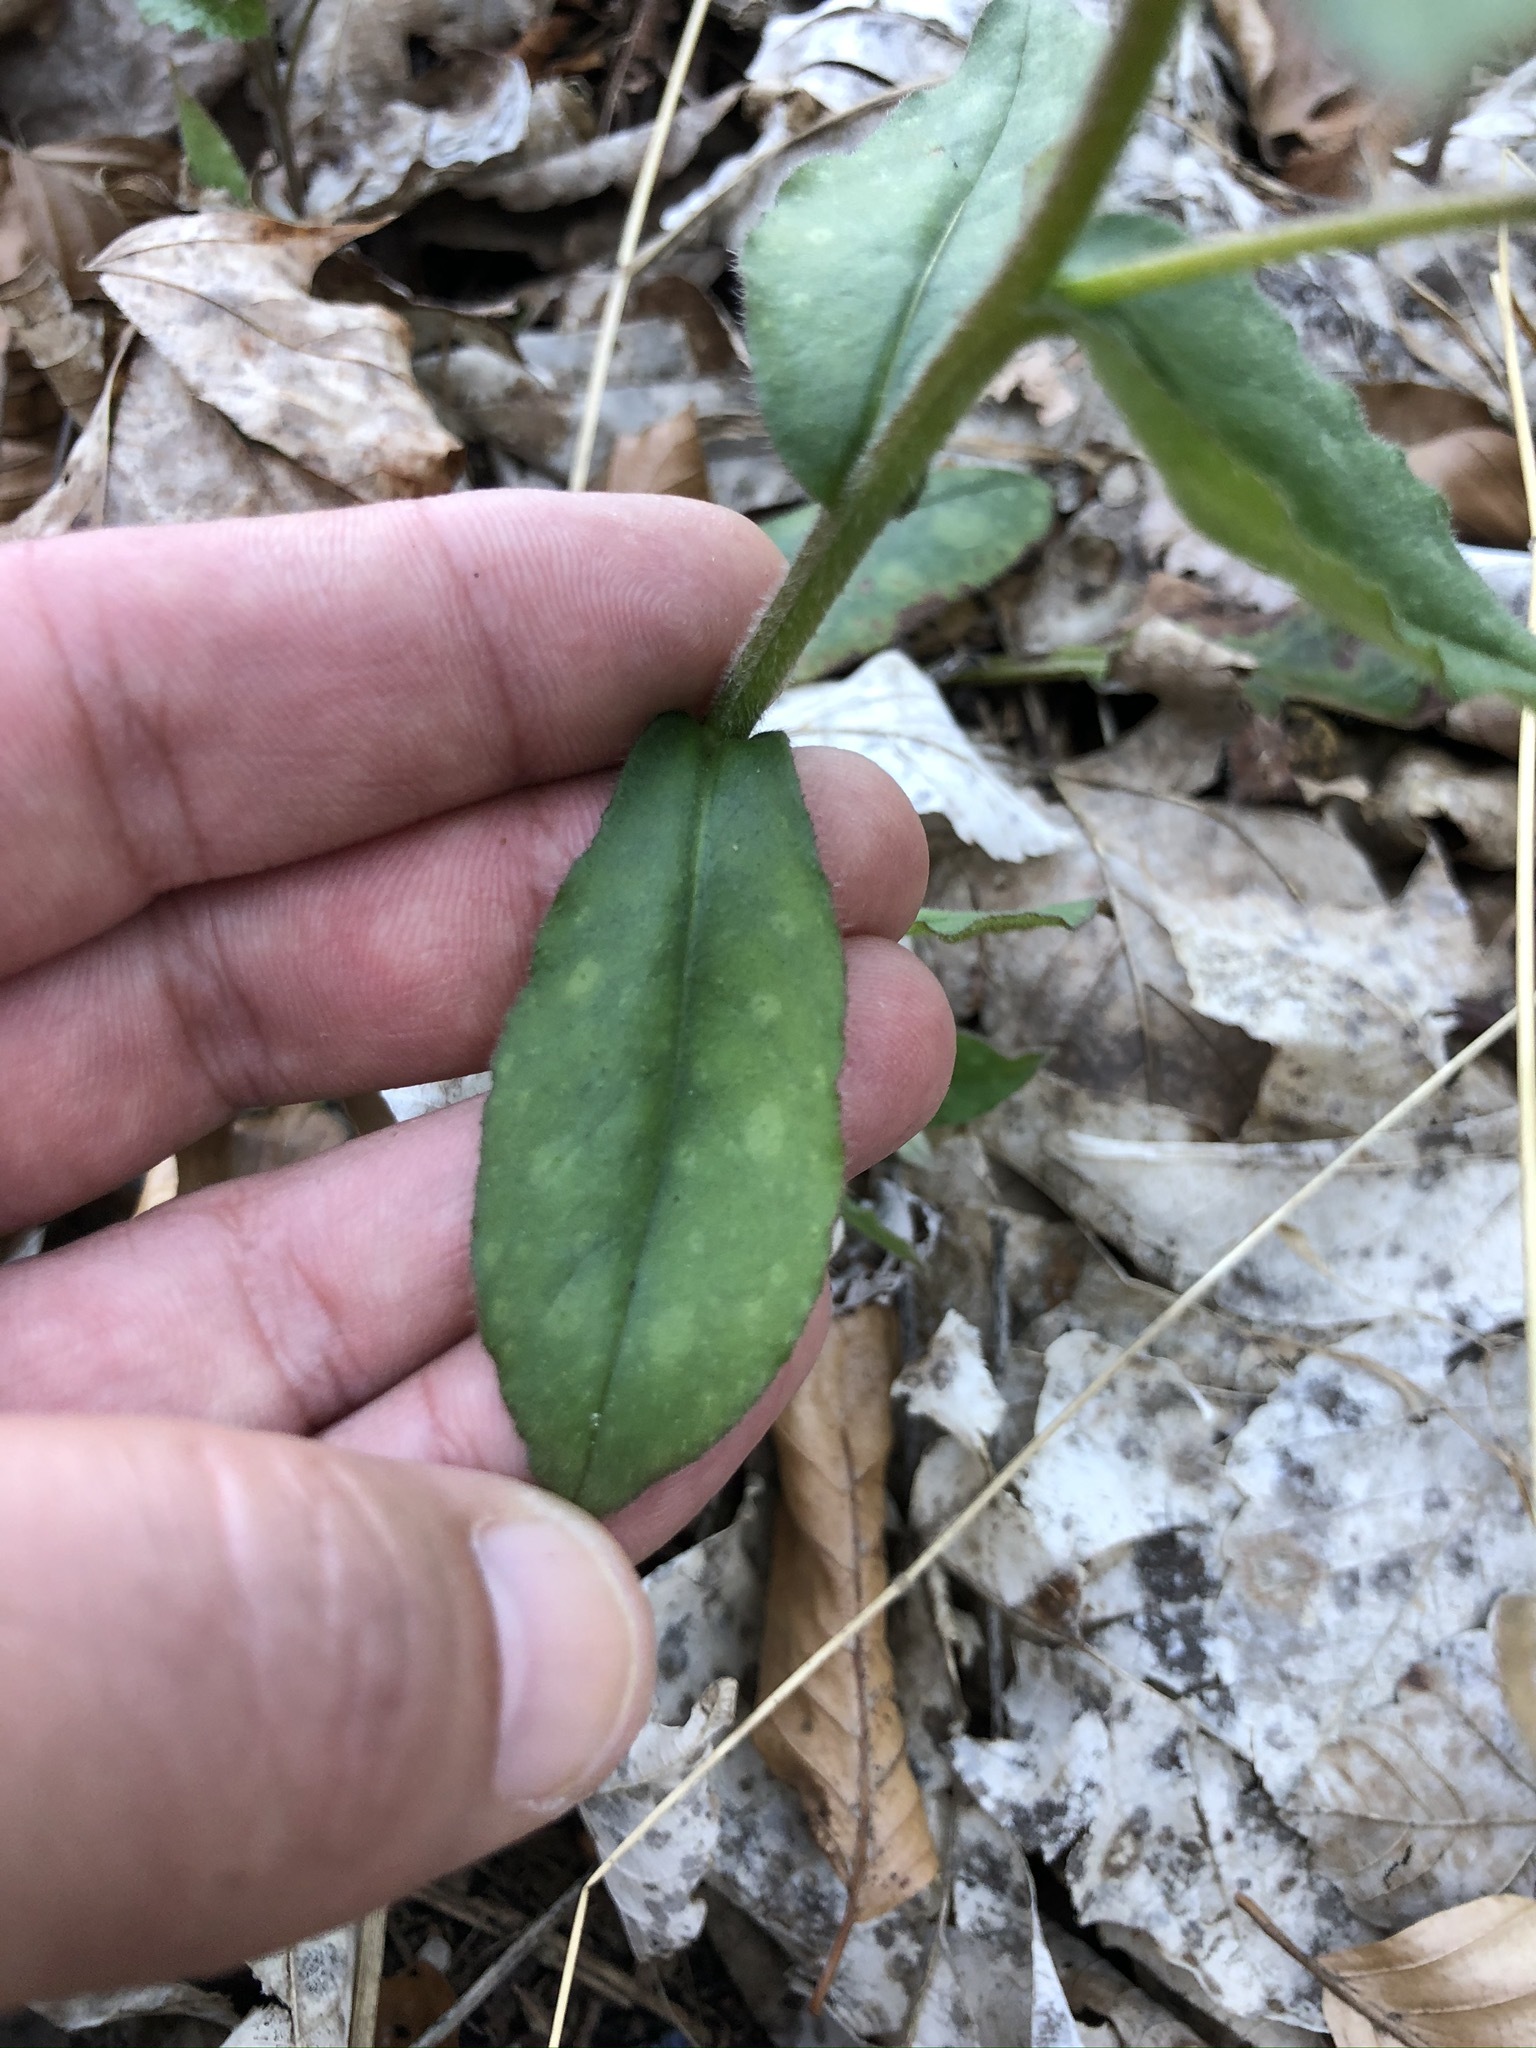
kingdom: Plantae
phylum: Tracheophyta
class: Magnoliopsida
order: Boraginales
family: Boraginaceae
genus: Pulmonaria
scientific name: Pulmonaria officinalis
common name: Lungwort
